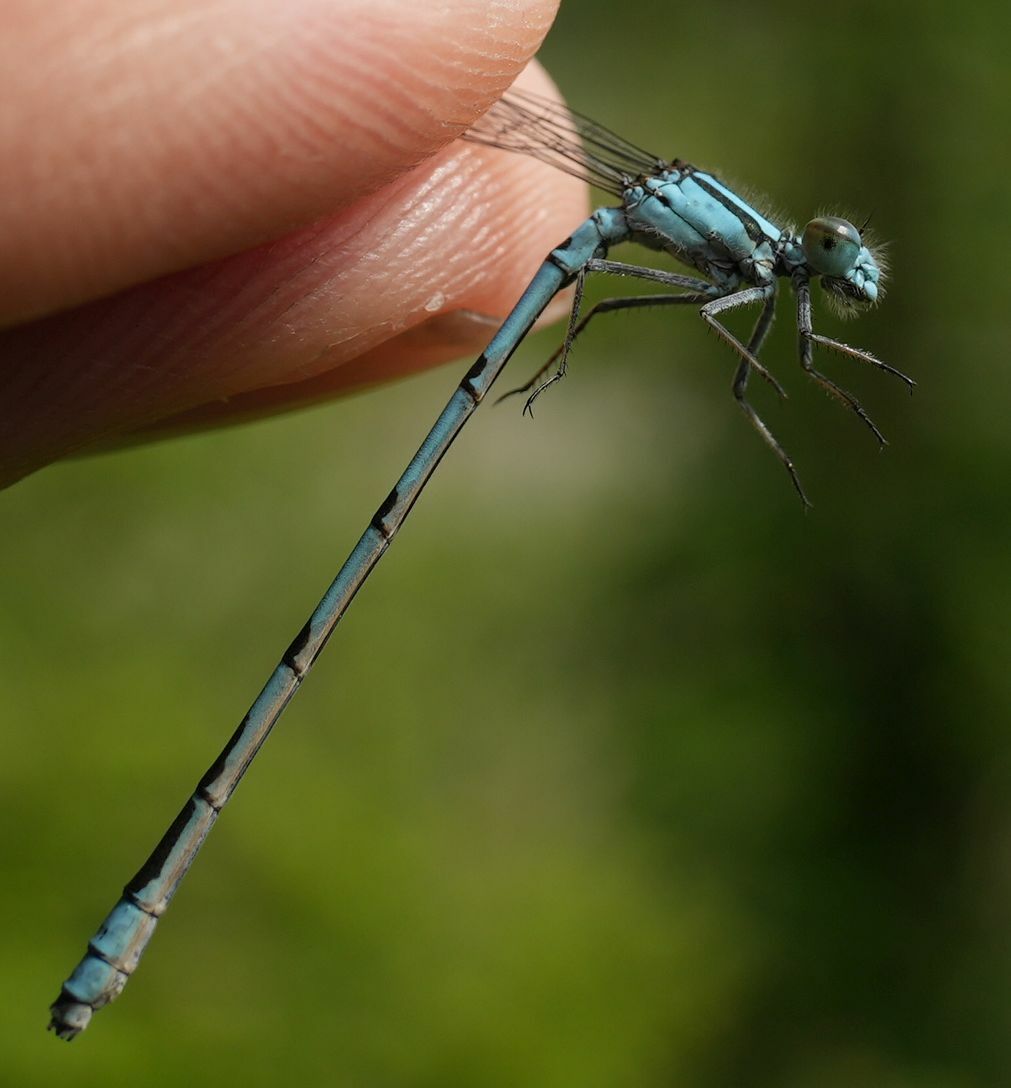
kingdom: Animalia
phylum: Arthropoda
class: Insecta
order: Odonata
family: Coenagrionidae
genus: Enallagma
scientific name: Enallagma ebrium
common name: Marsh bluet
